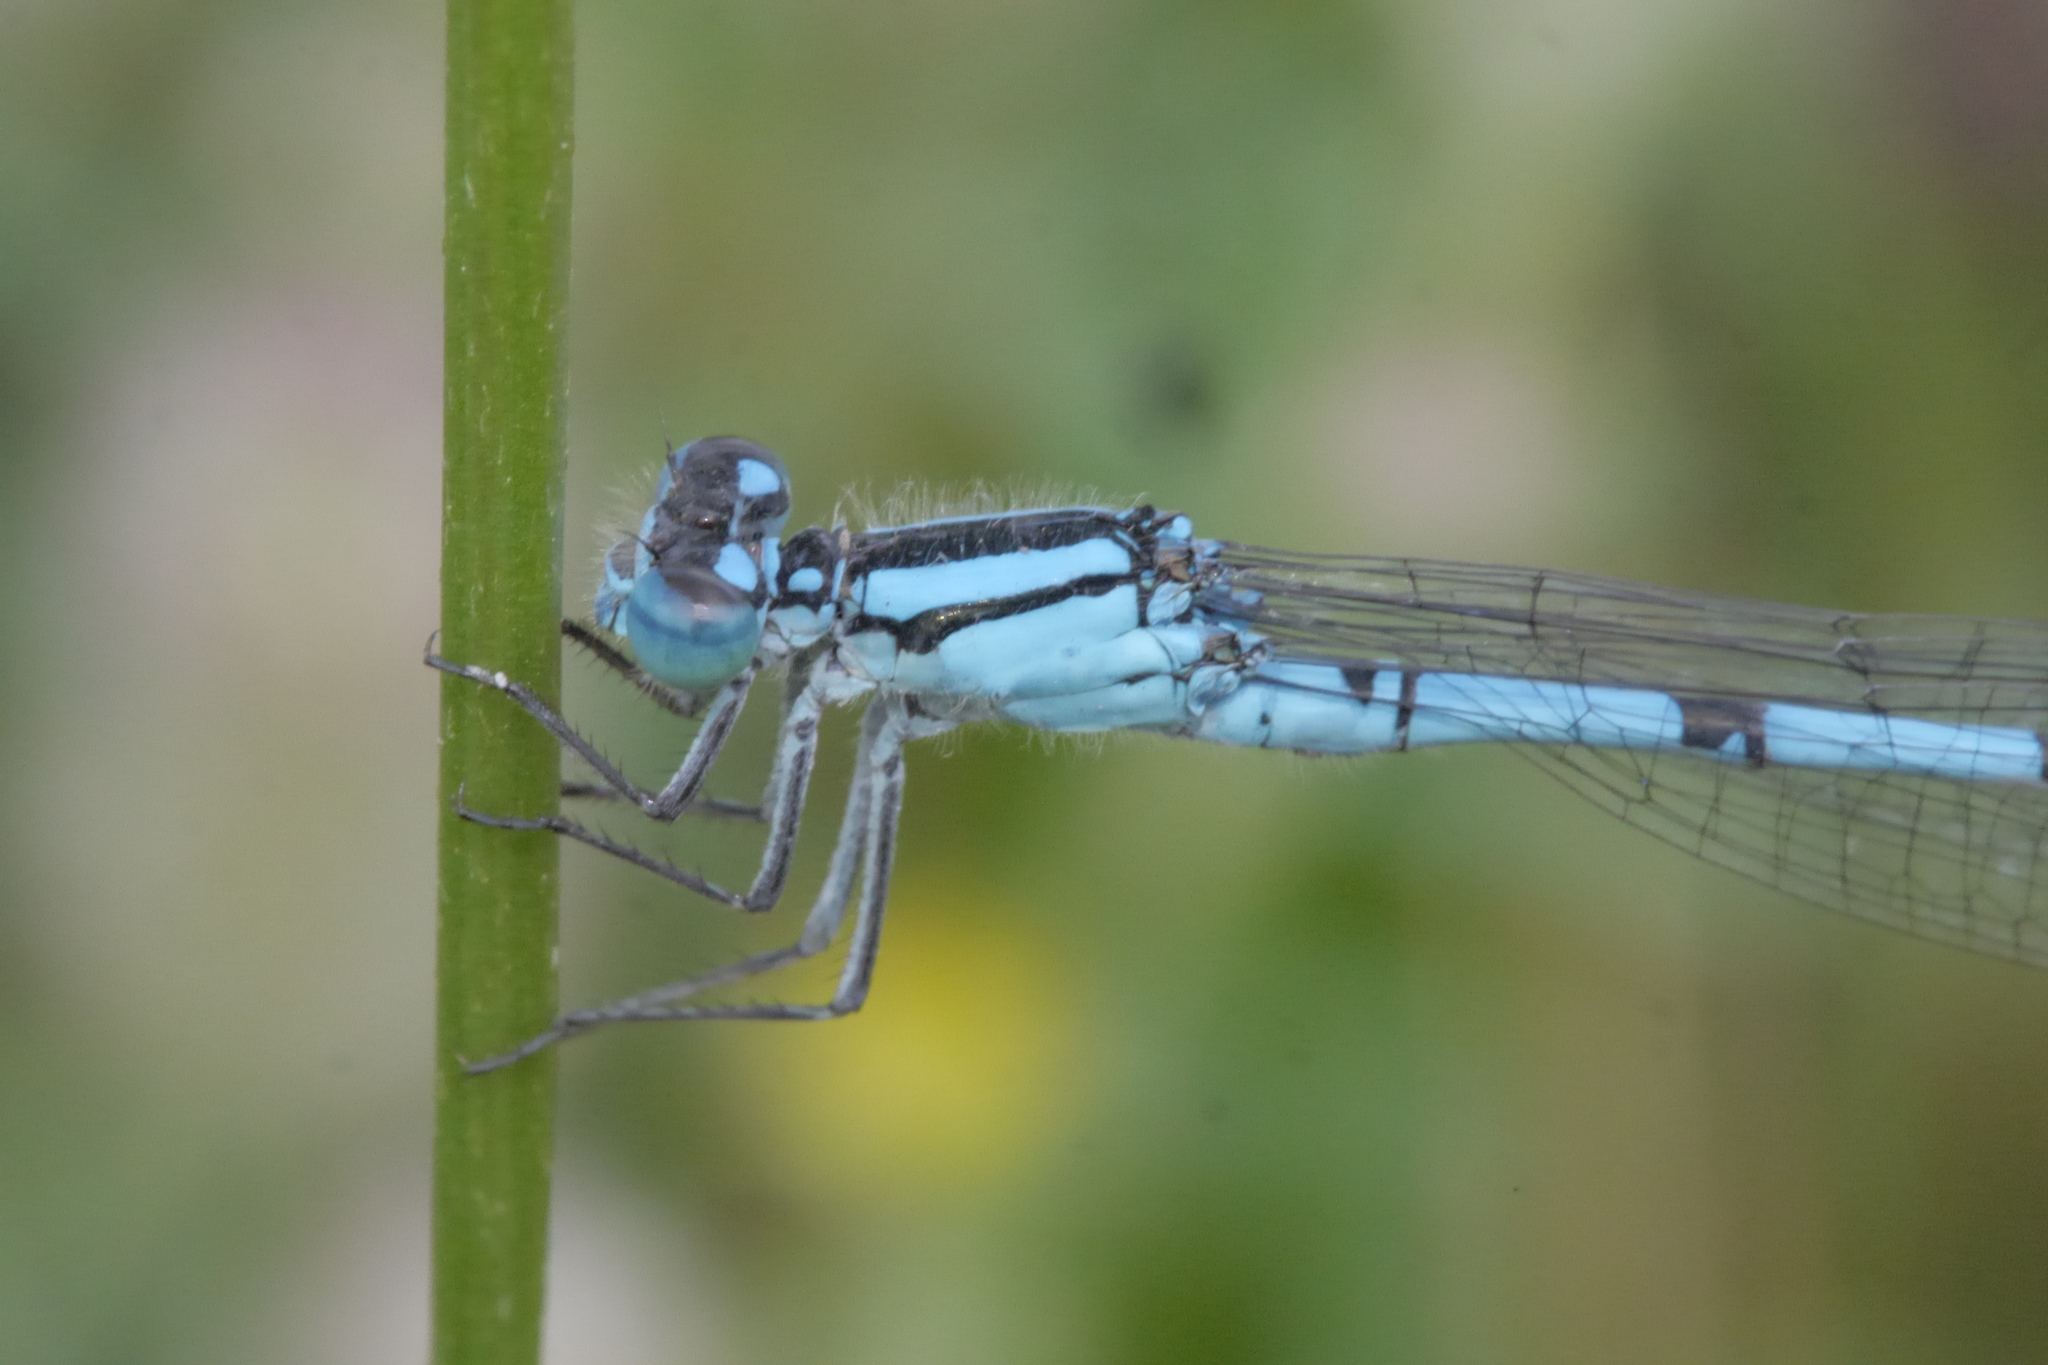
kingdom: Animalia
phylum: Arthropoda
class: Insecta
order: Odonata
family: Coenagrionidae
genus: Enallagma
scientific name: Enallagma cyathigerum
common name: Common blue damselfly
